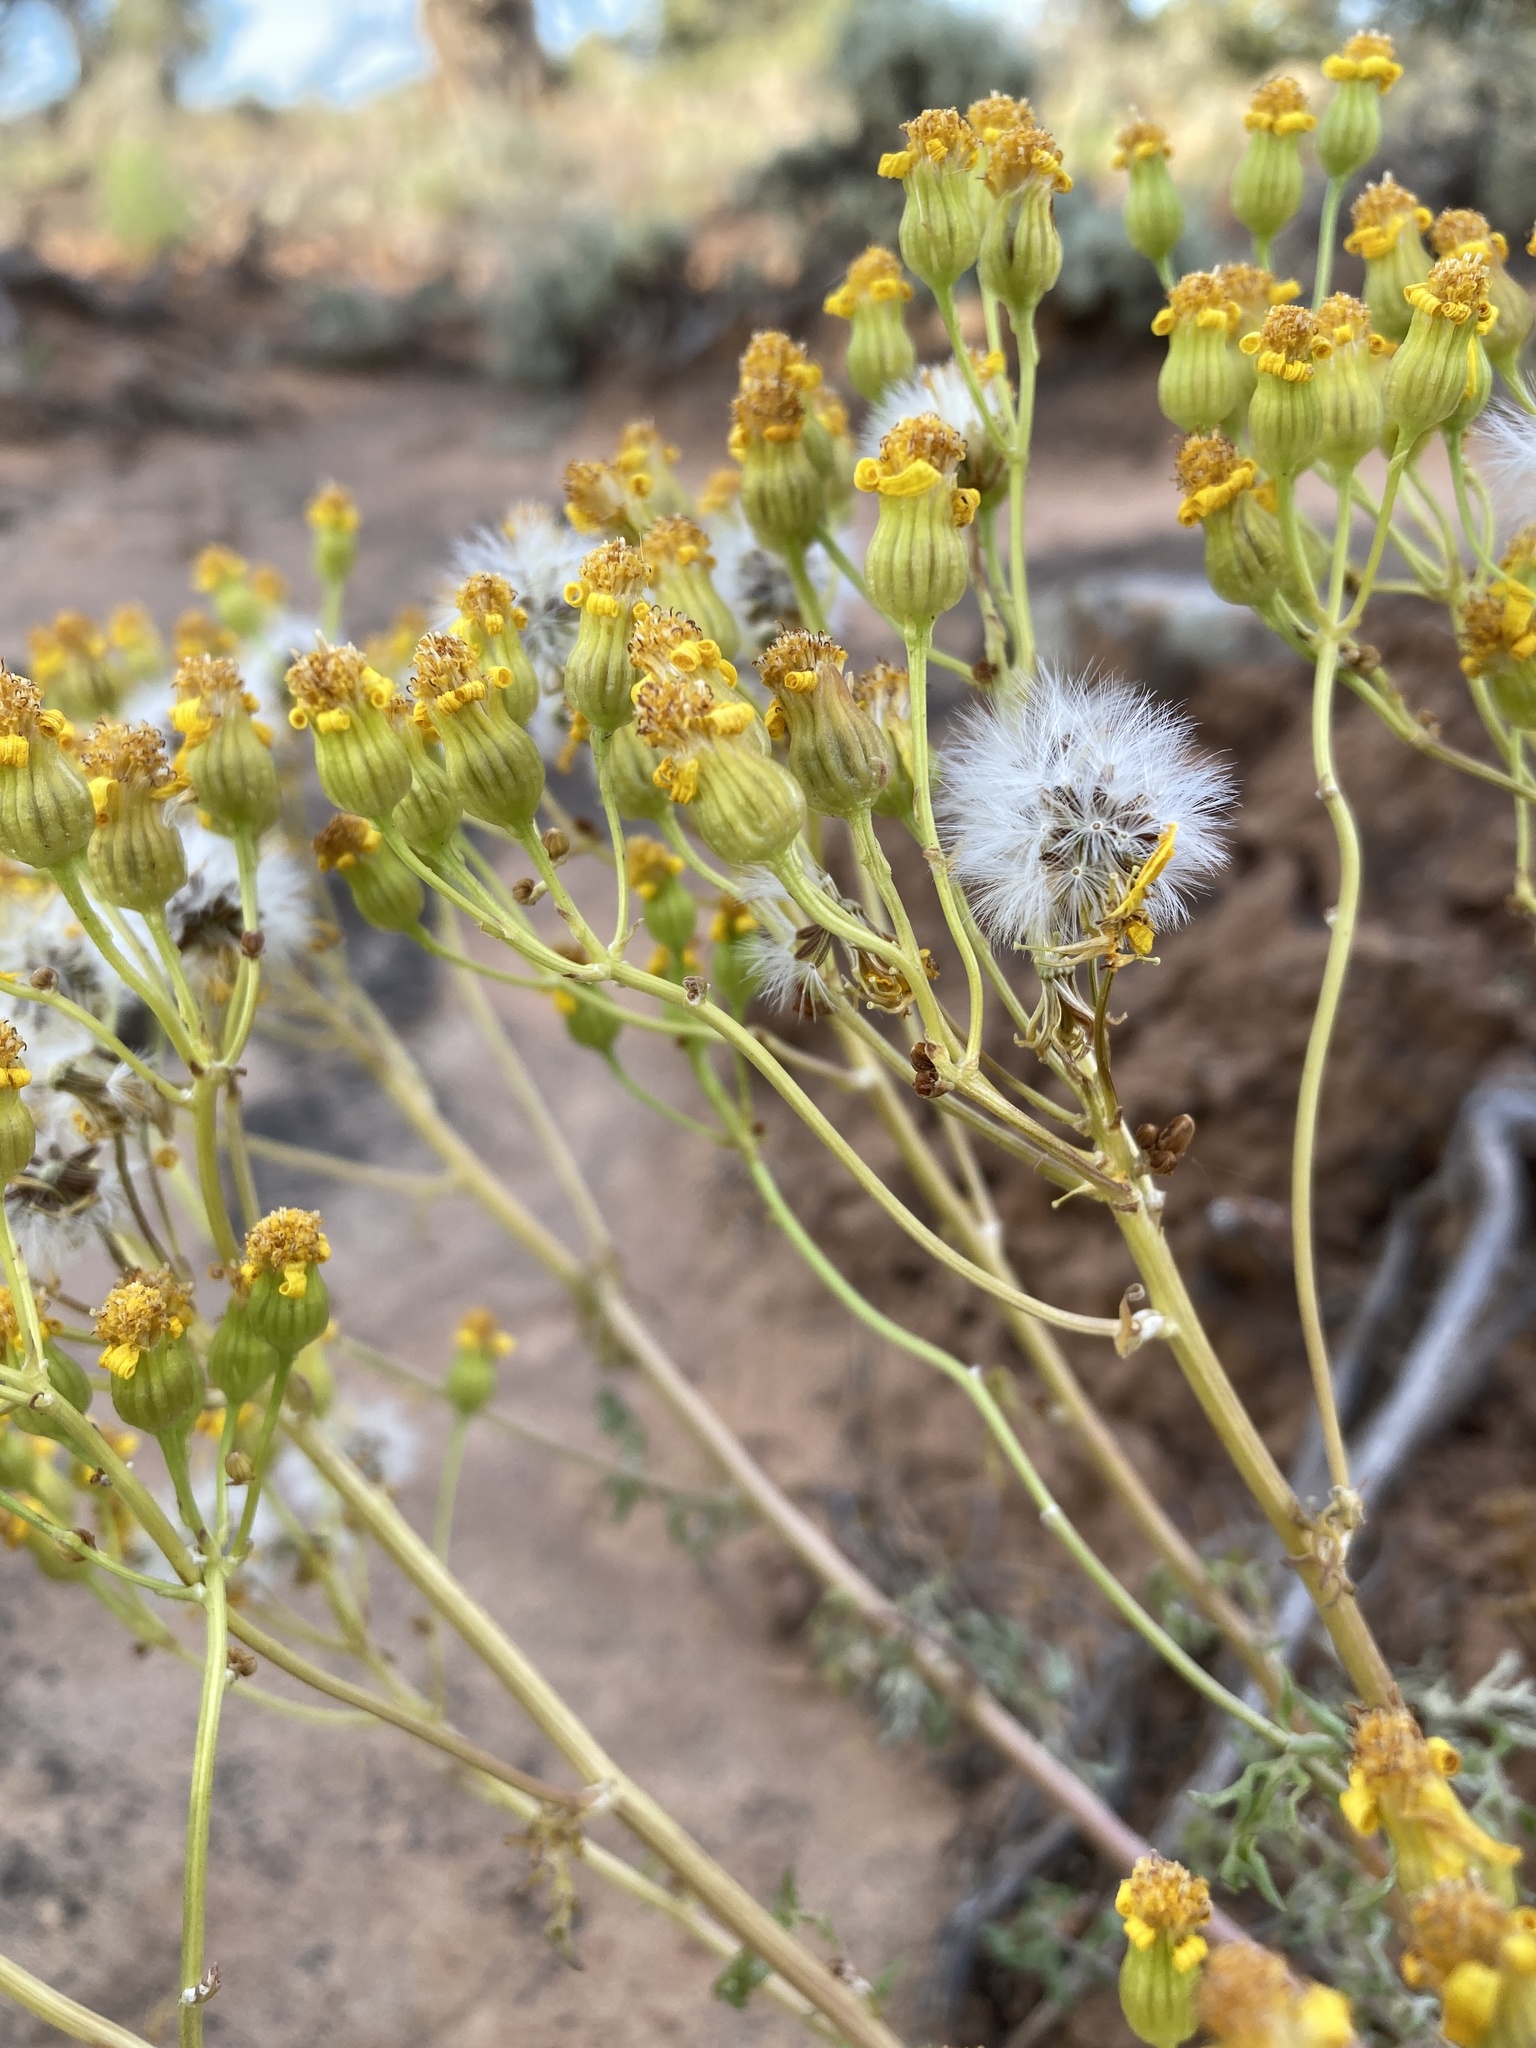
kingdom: Plantae
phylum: Tracheophyta
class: Magnoliopsida
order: Asterales
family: Asteraceae
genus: Packera
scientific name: Packera multilobata
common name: Lobe-leaf groundsel
